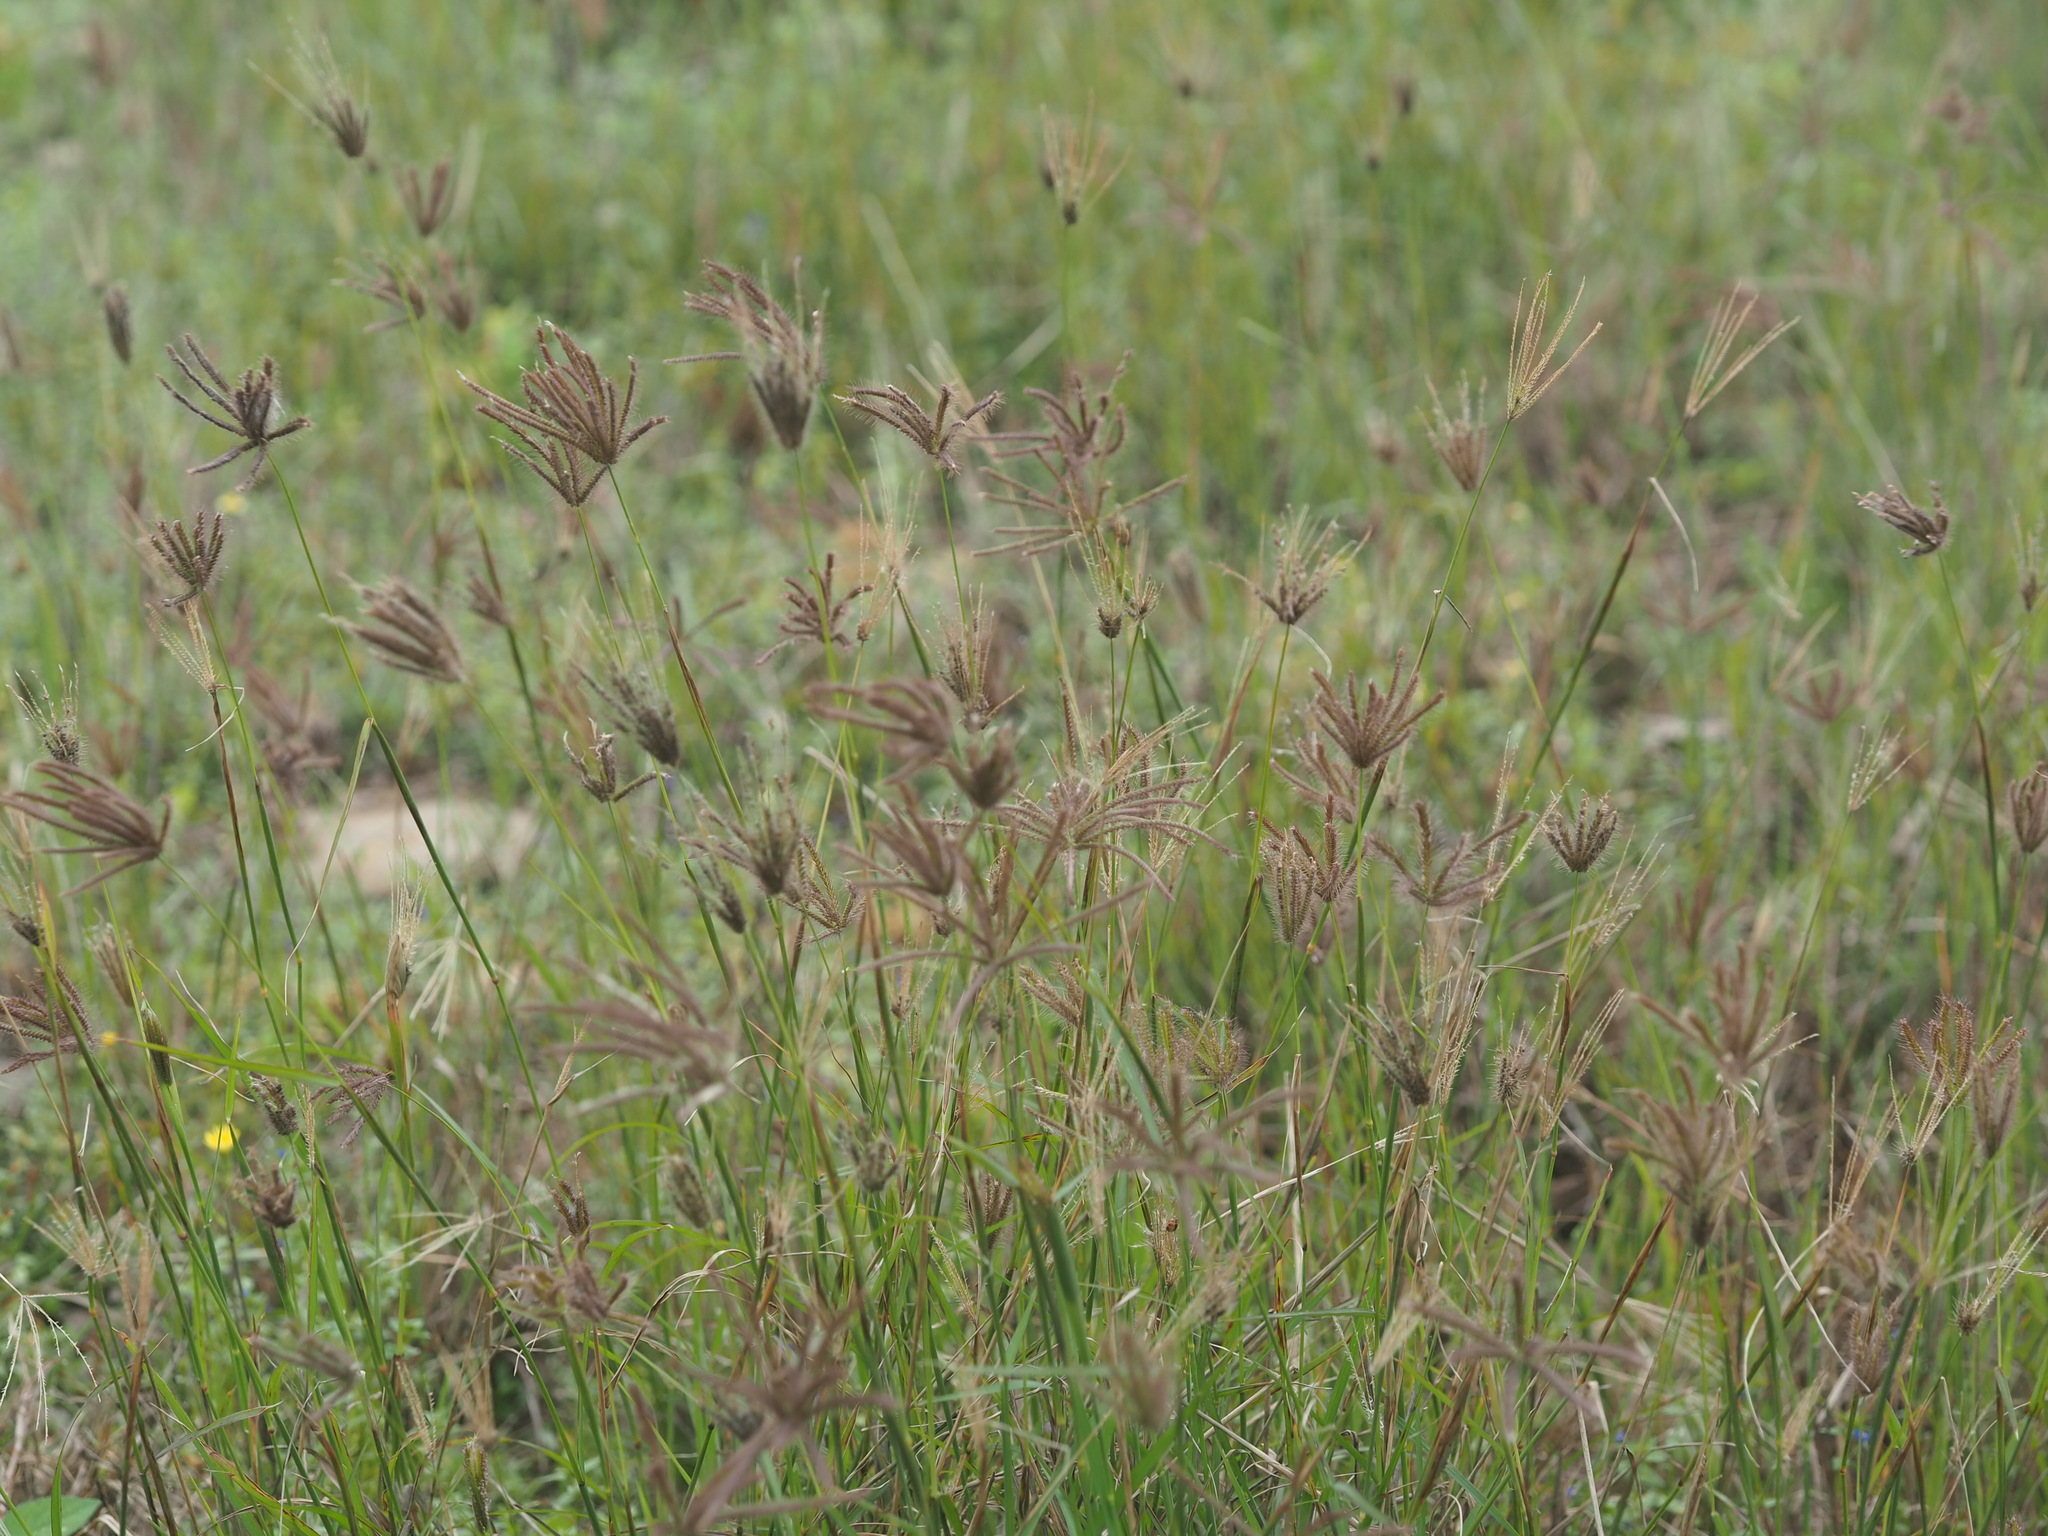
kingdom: Plantae
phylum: Tracheophyta
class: Liliopsida
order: Poales
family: Poaceae
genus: Chloris
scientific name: Chloris barbata
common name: Swollen fingergrass
